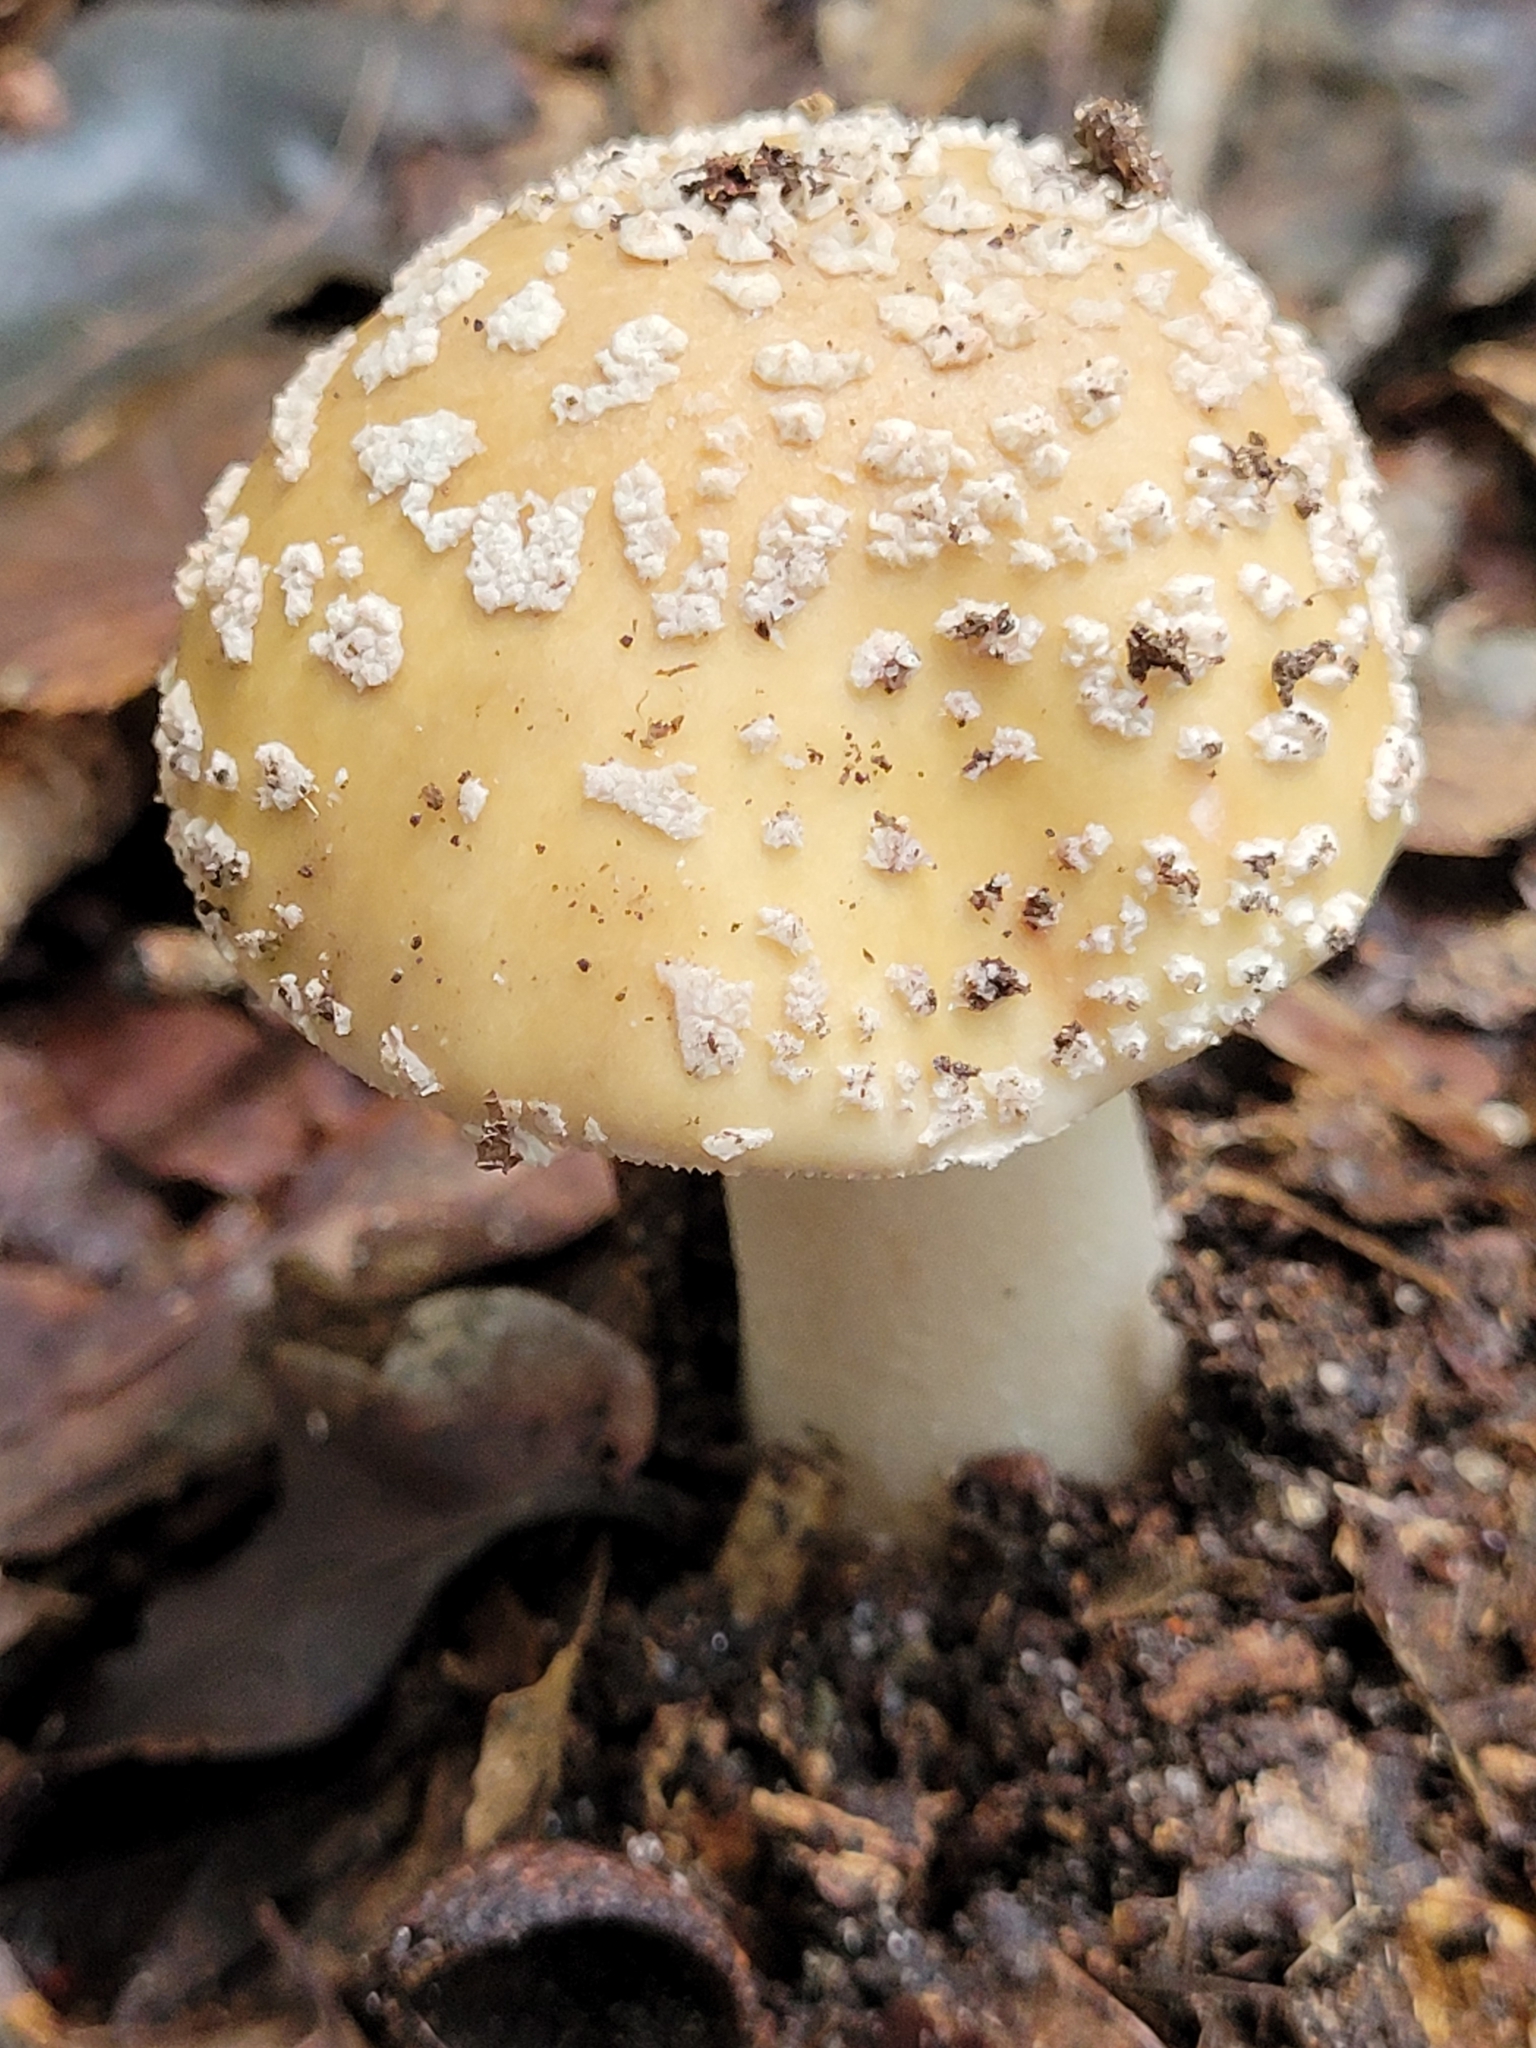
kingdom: Fungi
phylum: Basidiomycota
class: Agaricomycetes
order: Agaricales
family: Amanitaceae
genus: Amanita
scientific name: Amanita gemmata
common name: Jewelled amanita
